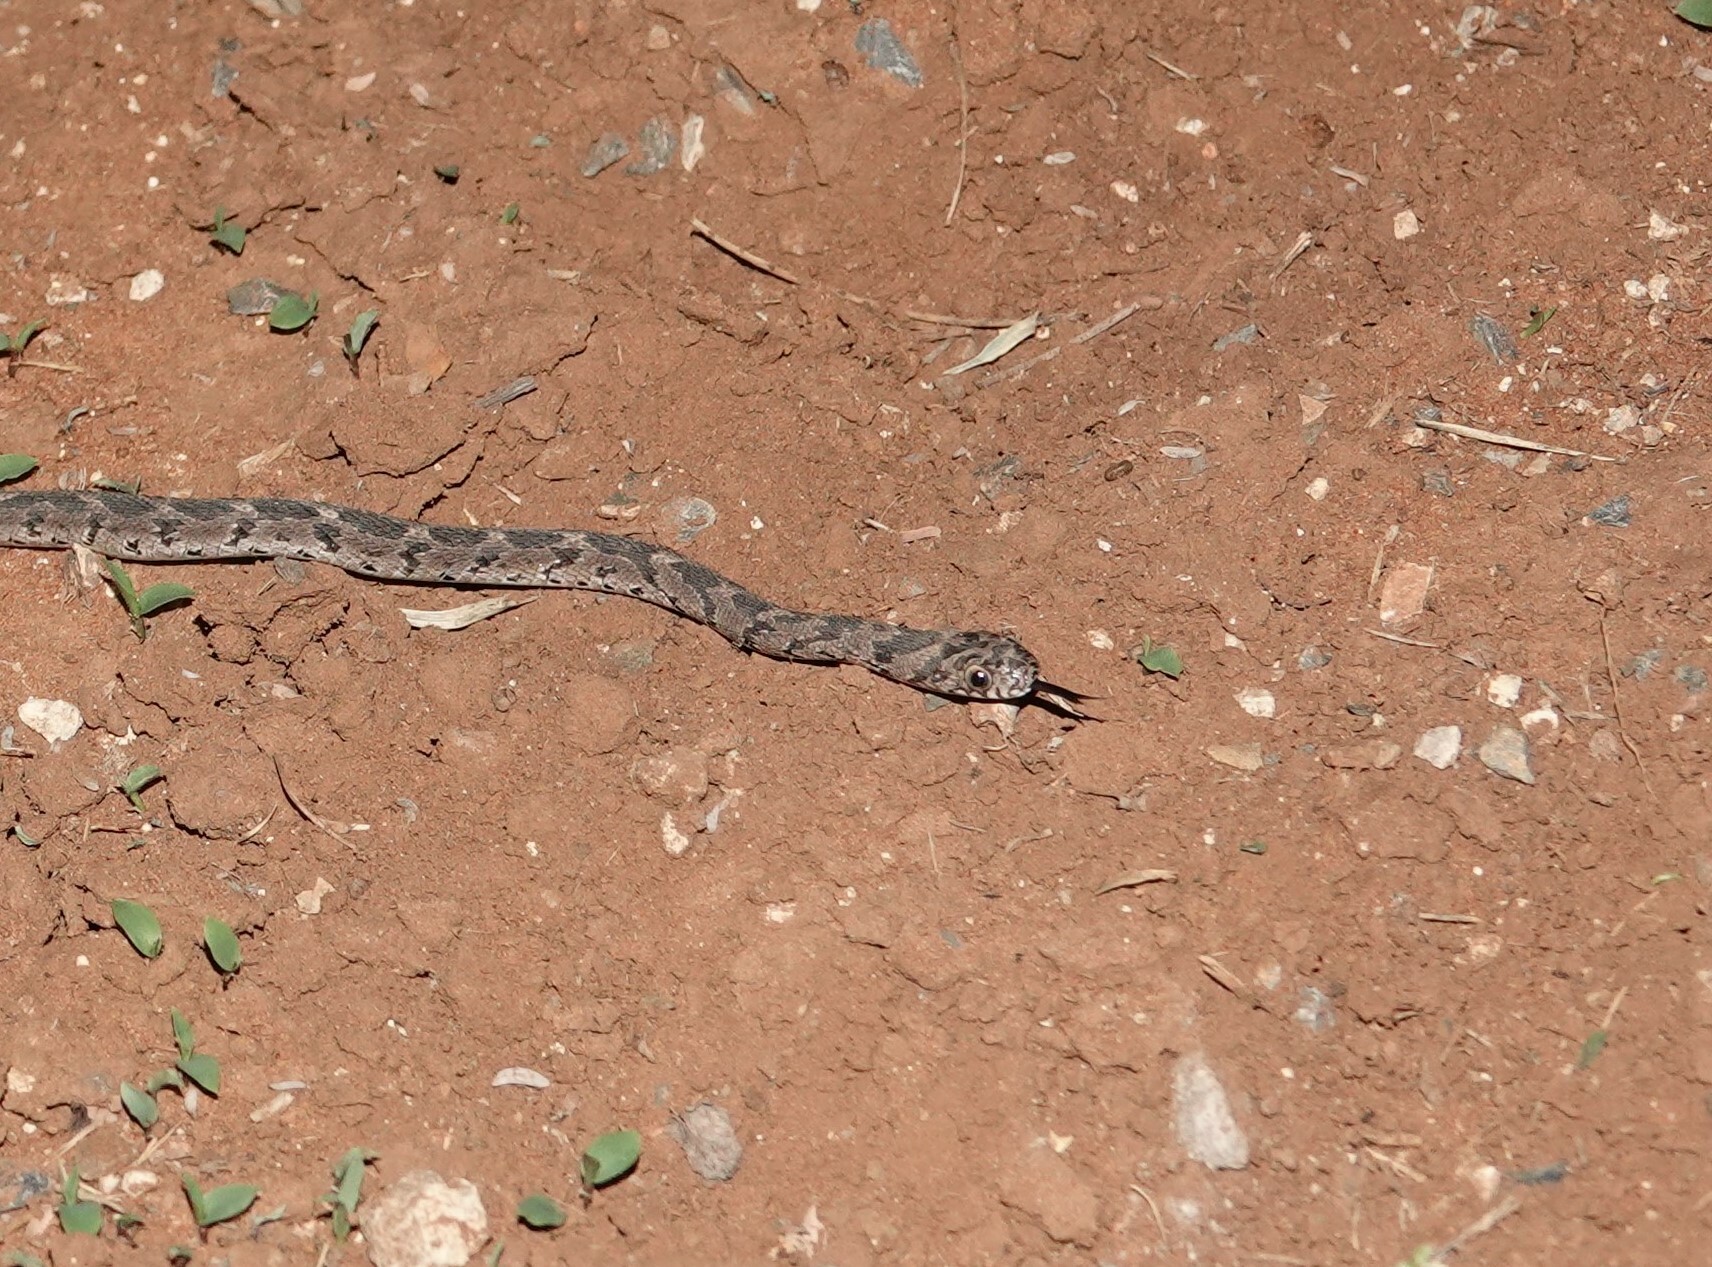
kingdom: Animalia
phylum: Chordata
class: Squamata
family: Colubridae
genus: Dasypeltis
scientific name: Dasypeltis scabra
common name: Common egg eater
